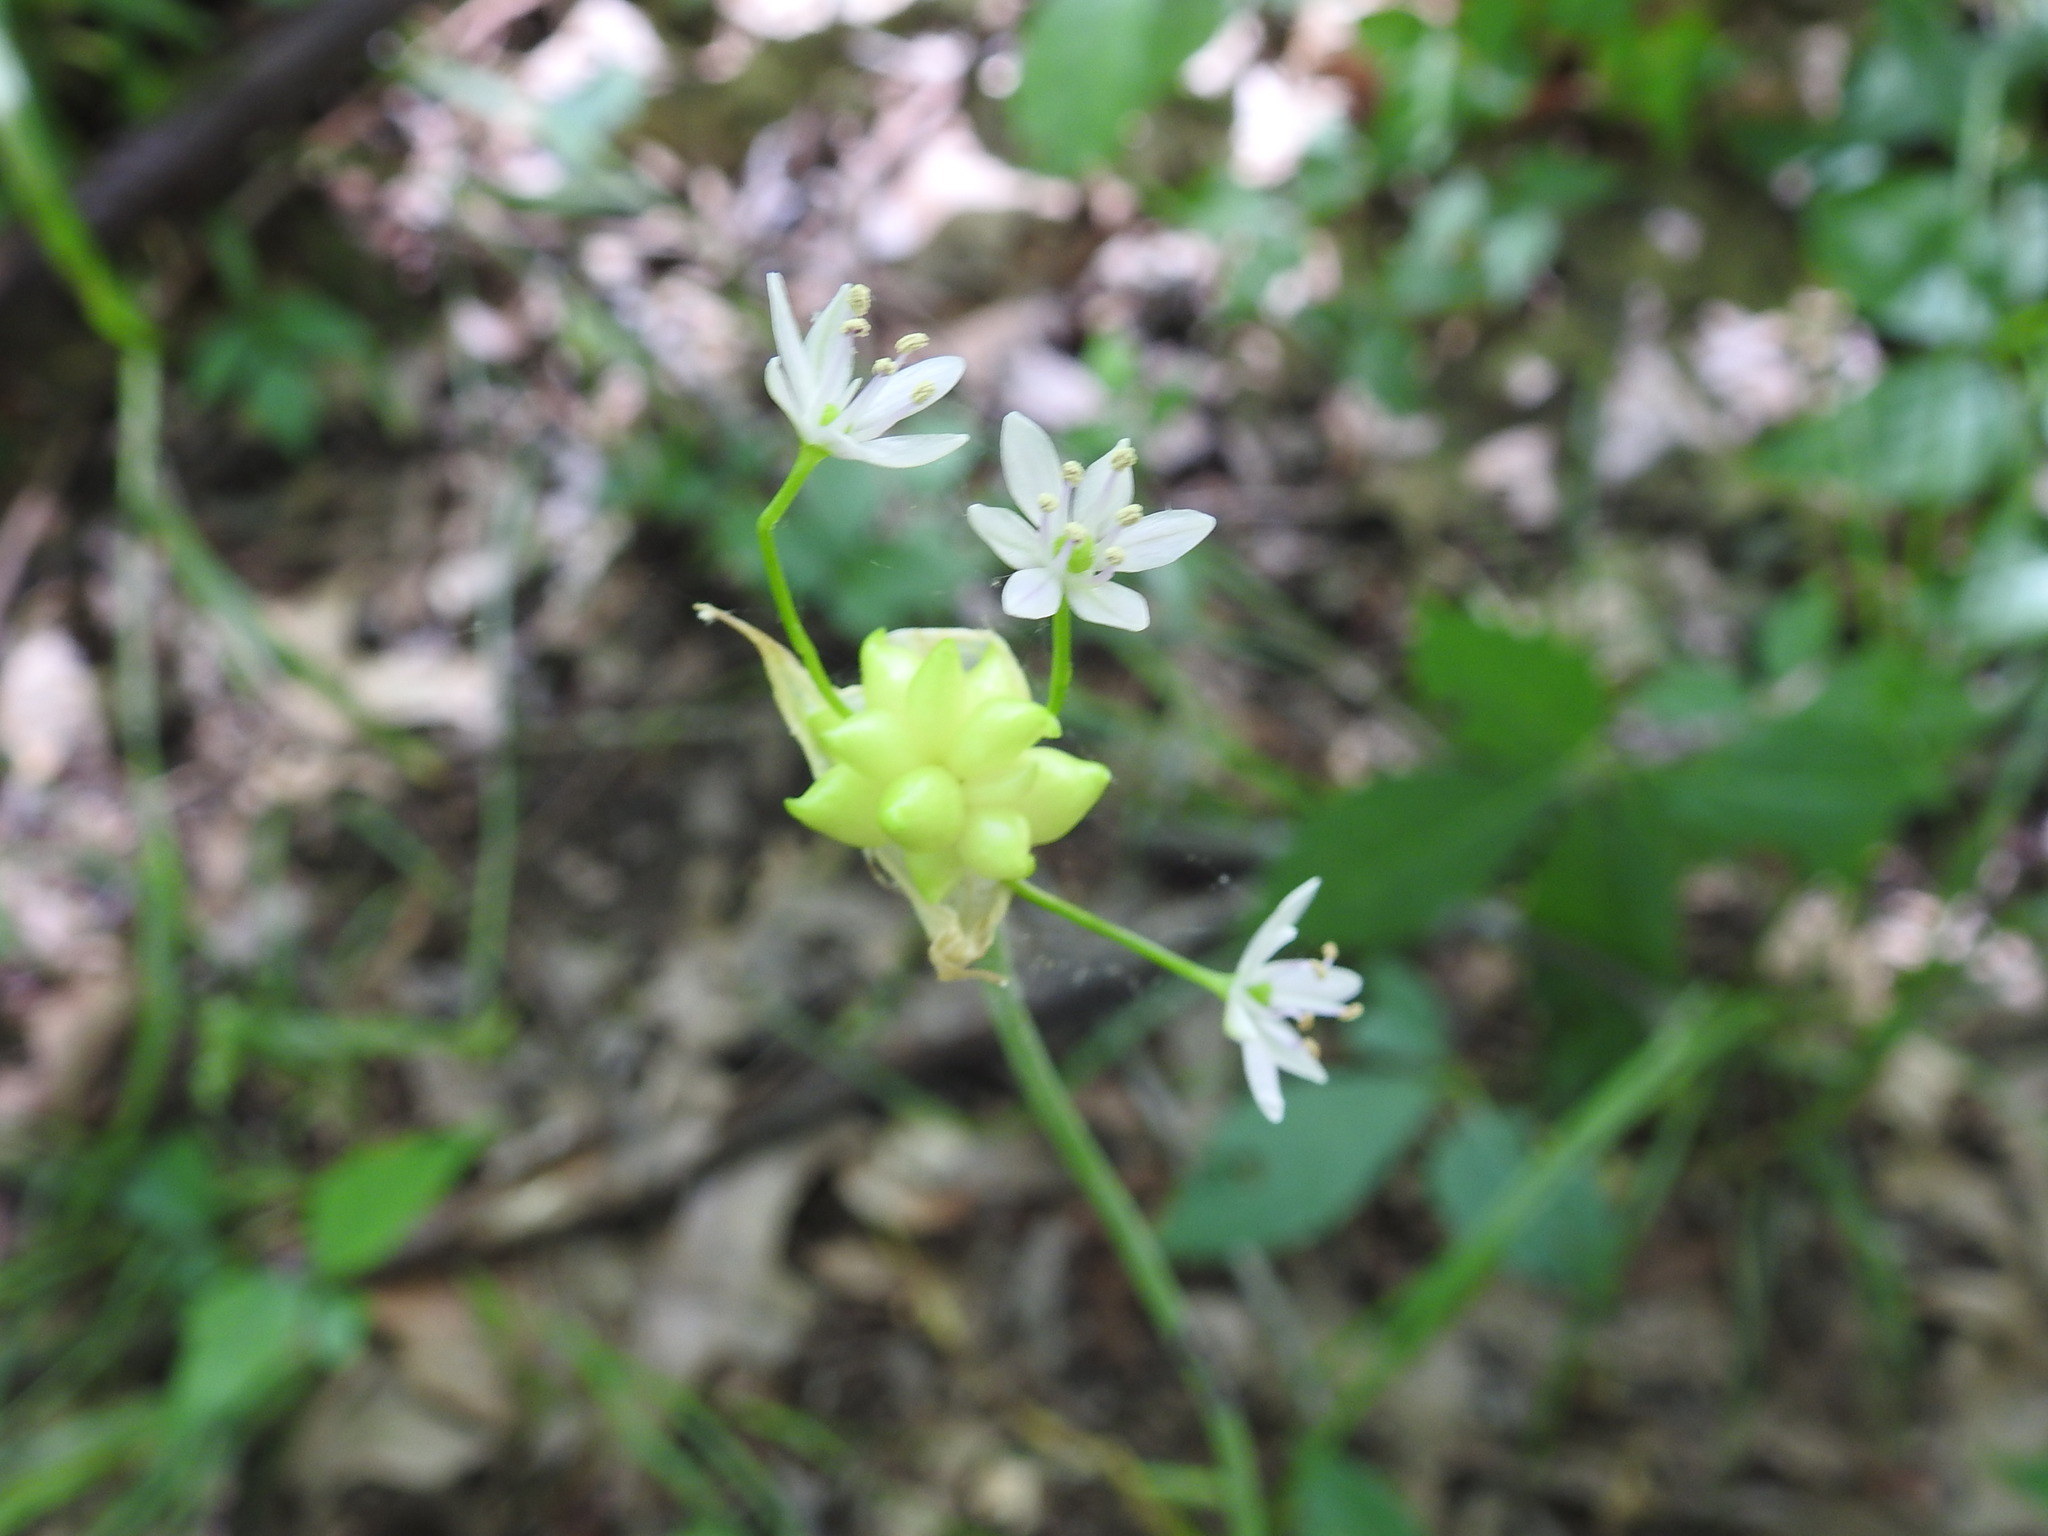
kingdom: Plantae
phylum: Tracheophyta
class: Liliopsida
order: Asparagales
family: Amaryllidaceae
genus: Allium
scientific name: Allium canadense
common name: Meadow garlic
